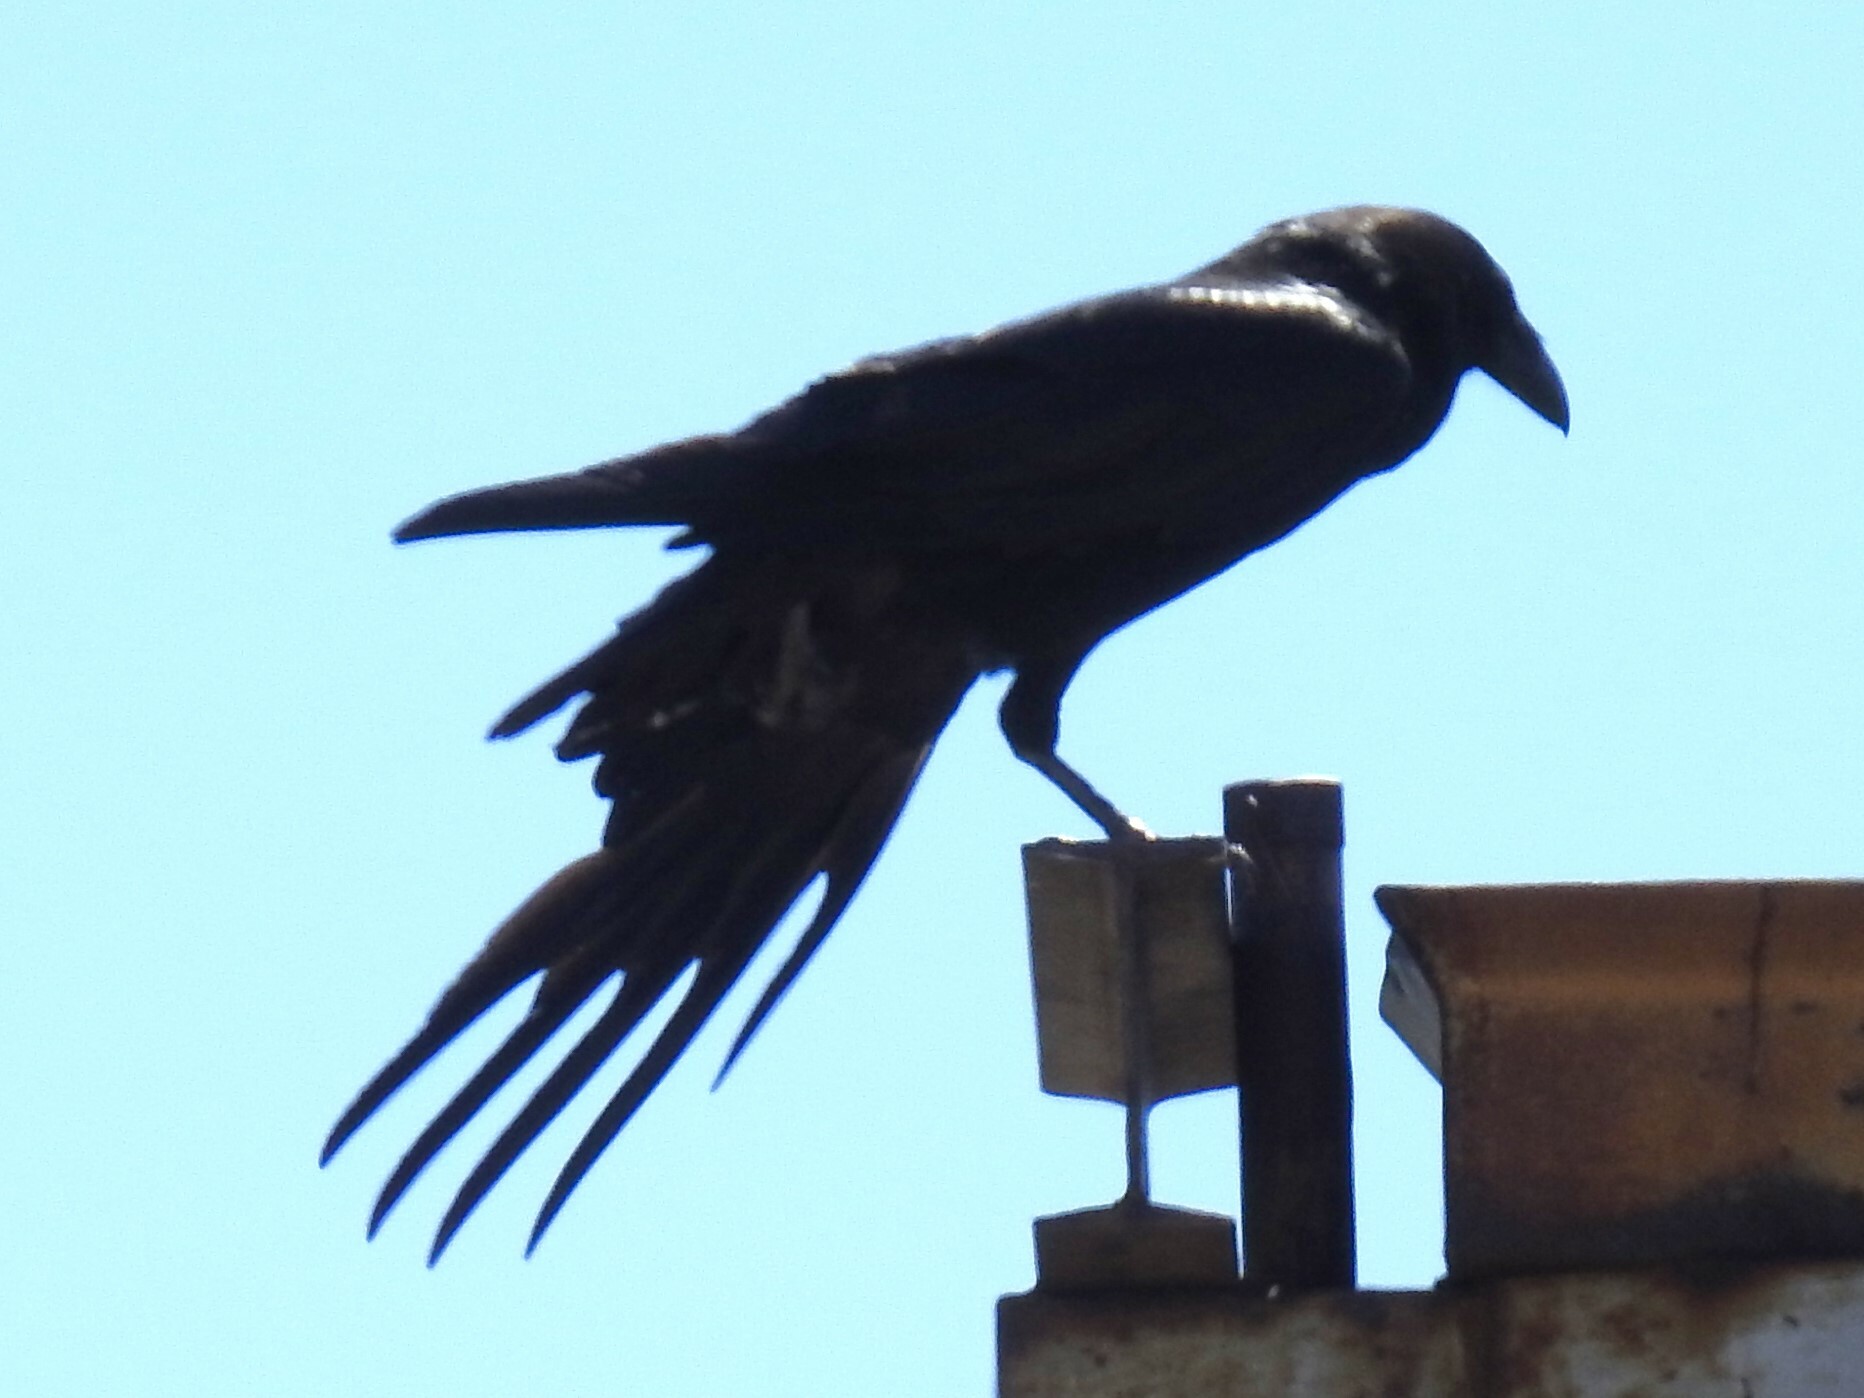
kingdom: Animalia
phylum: Chordata
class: Aves
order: Passeriformes
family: Corvidae
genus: Corvus
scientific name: Corvus corax
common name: Common raven
